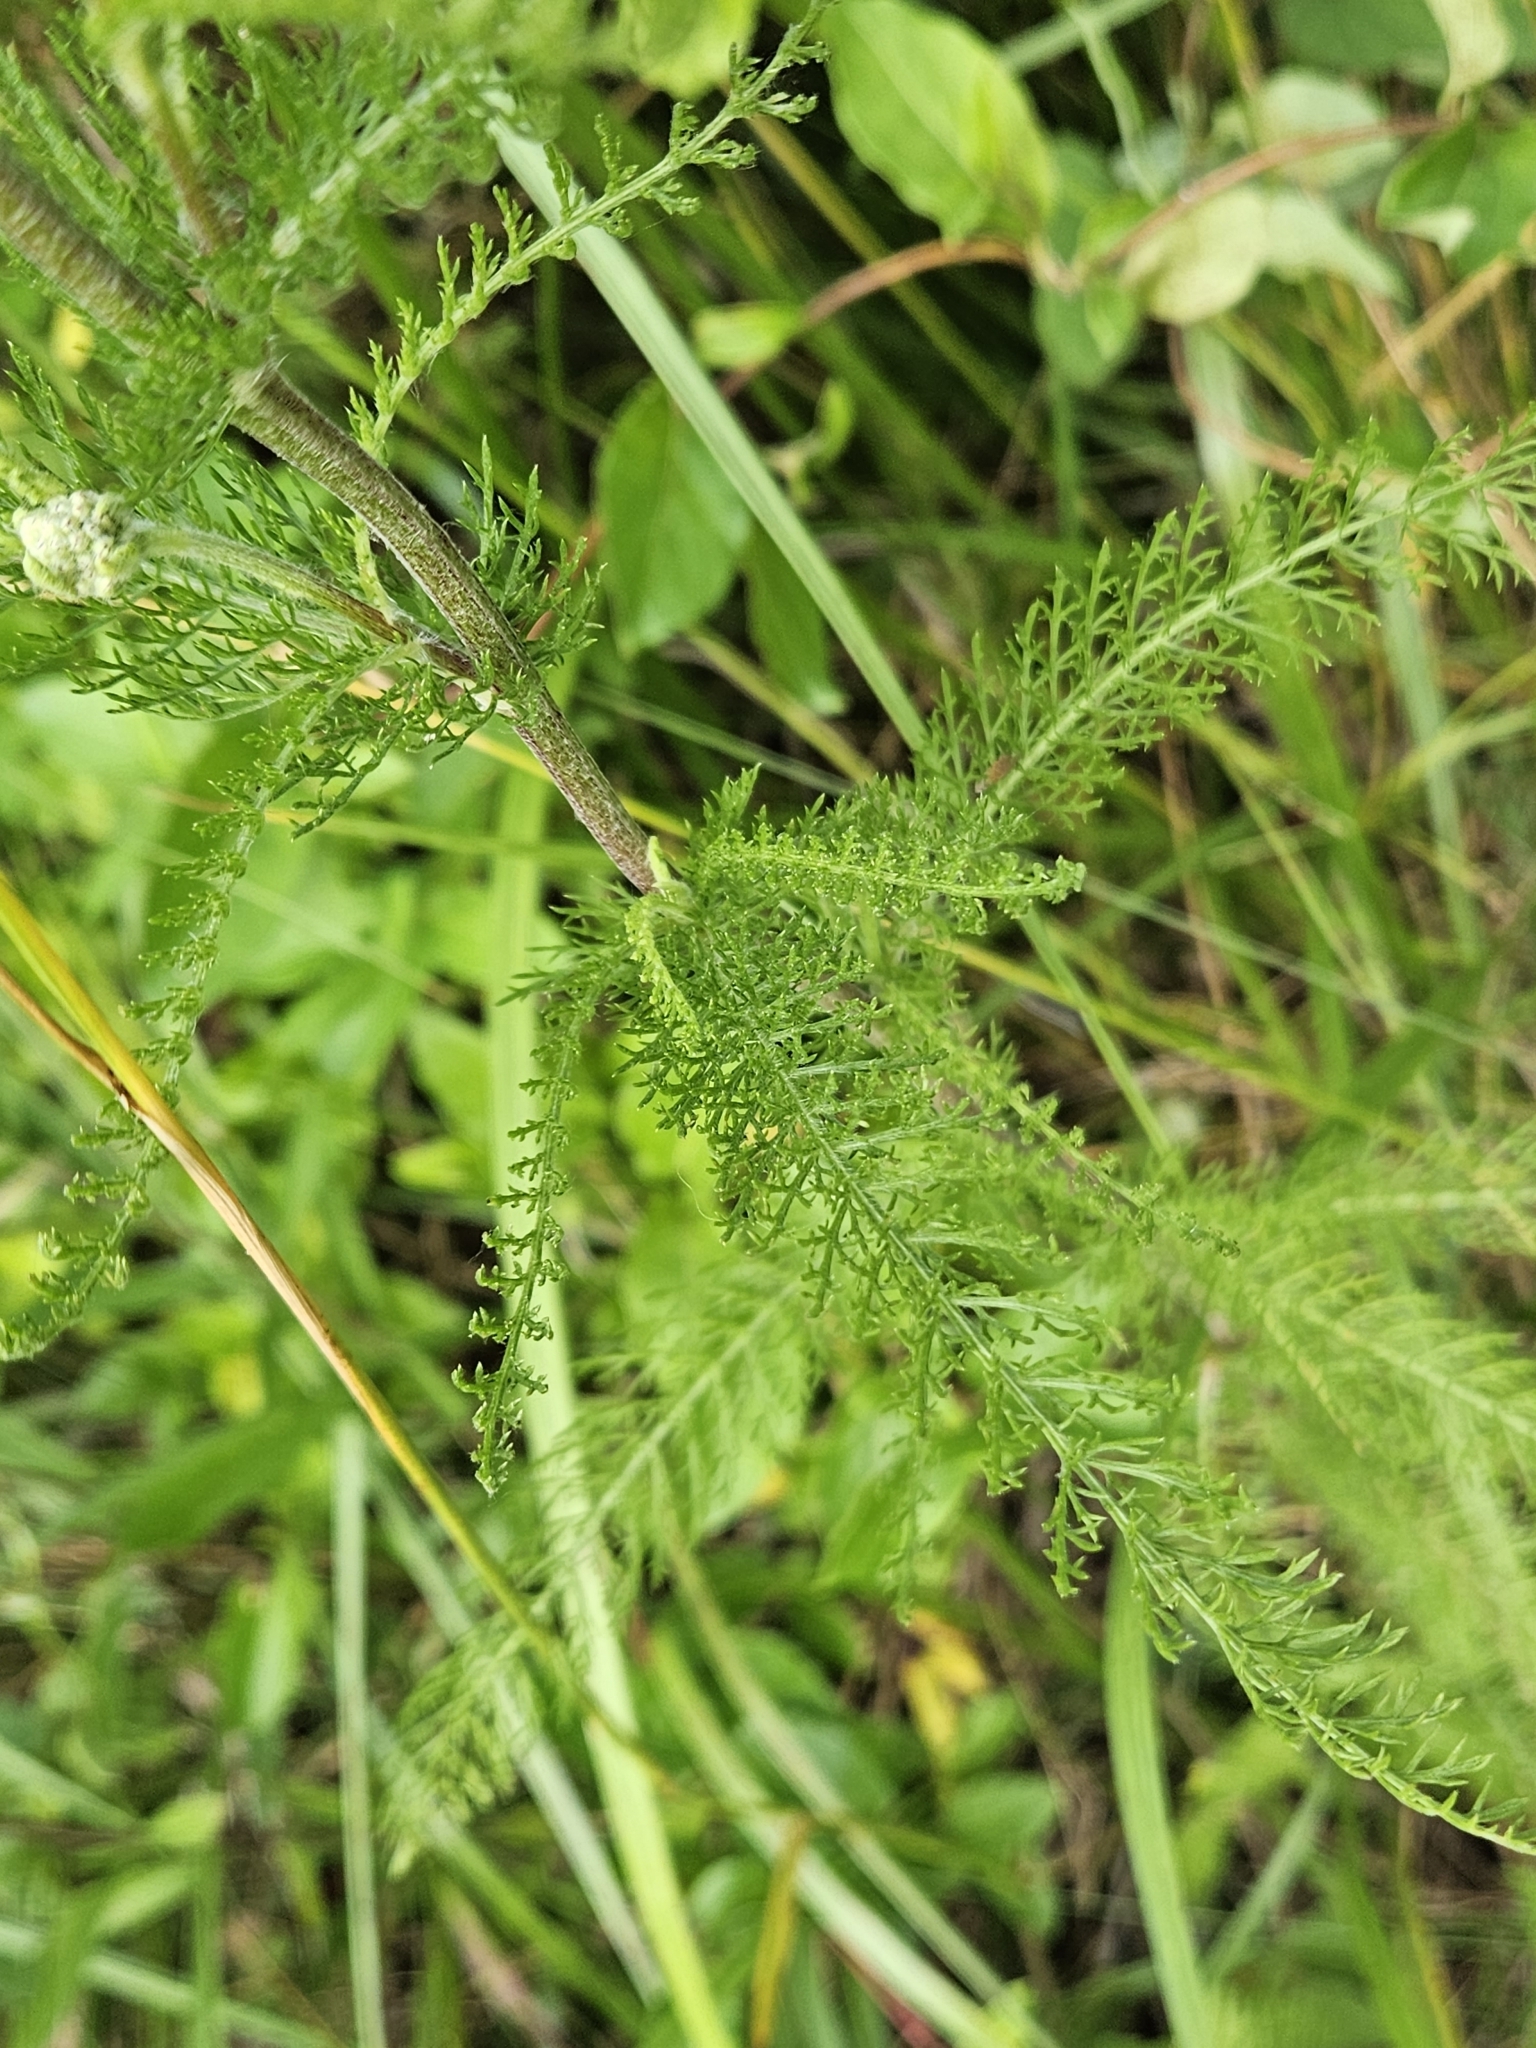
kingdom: Plantae
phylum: Tracheophyta
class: Magnoliopsida
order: Asterales
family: Asteraceae
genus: Achillea
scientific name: Achillea millefolium
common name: Yarrow
